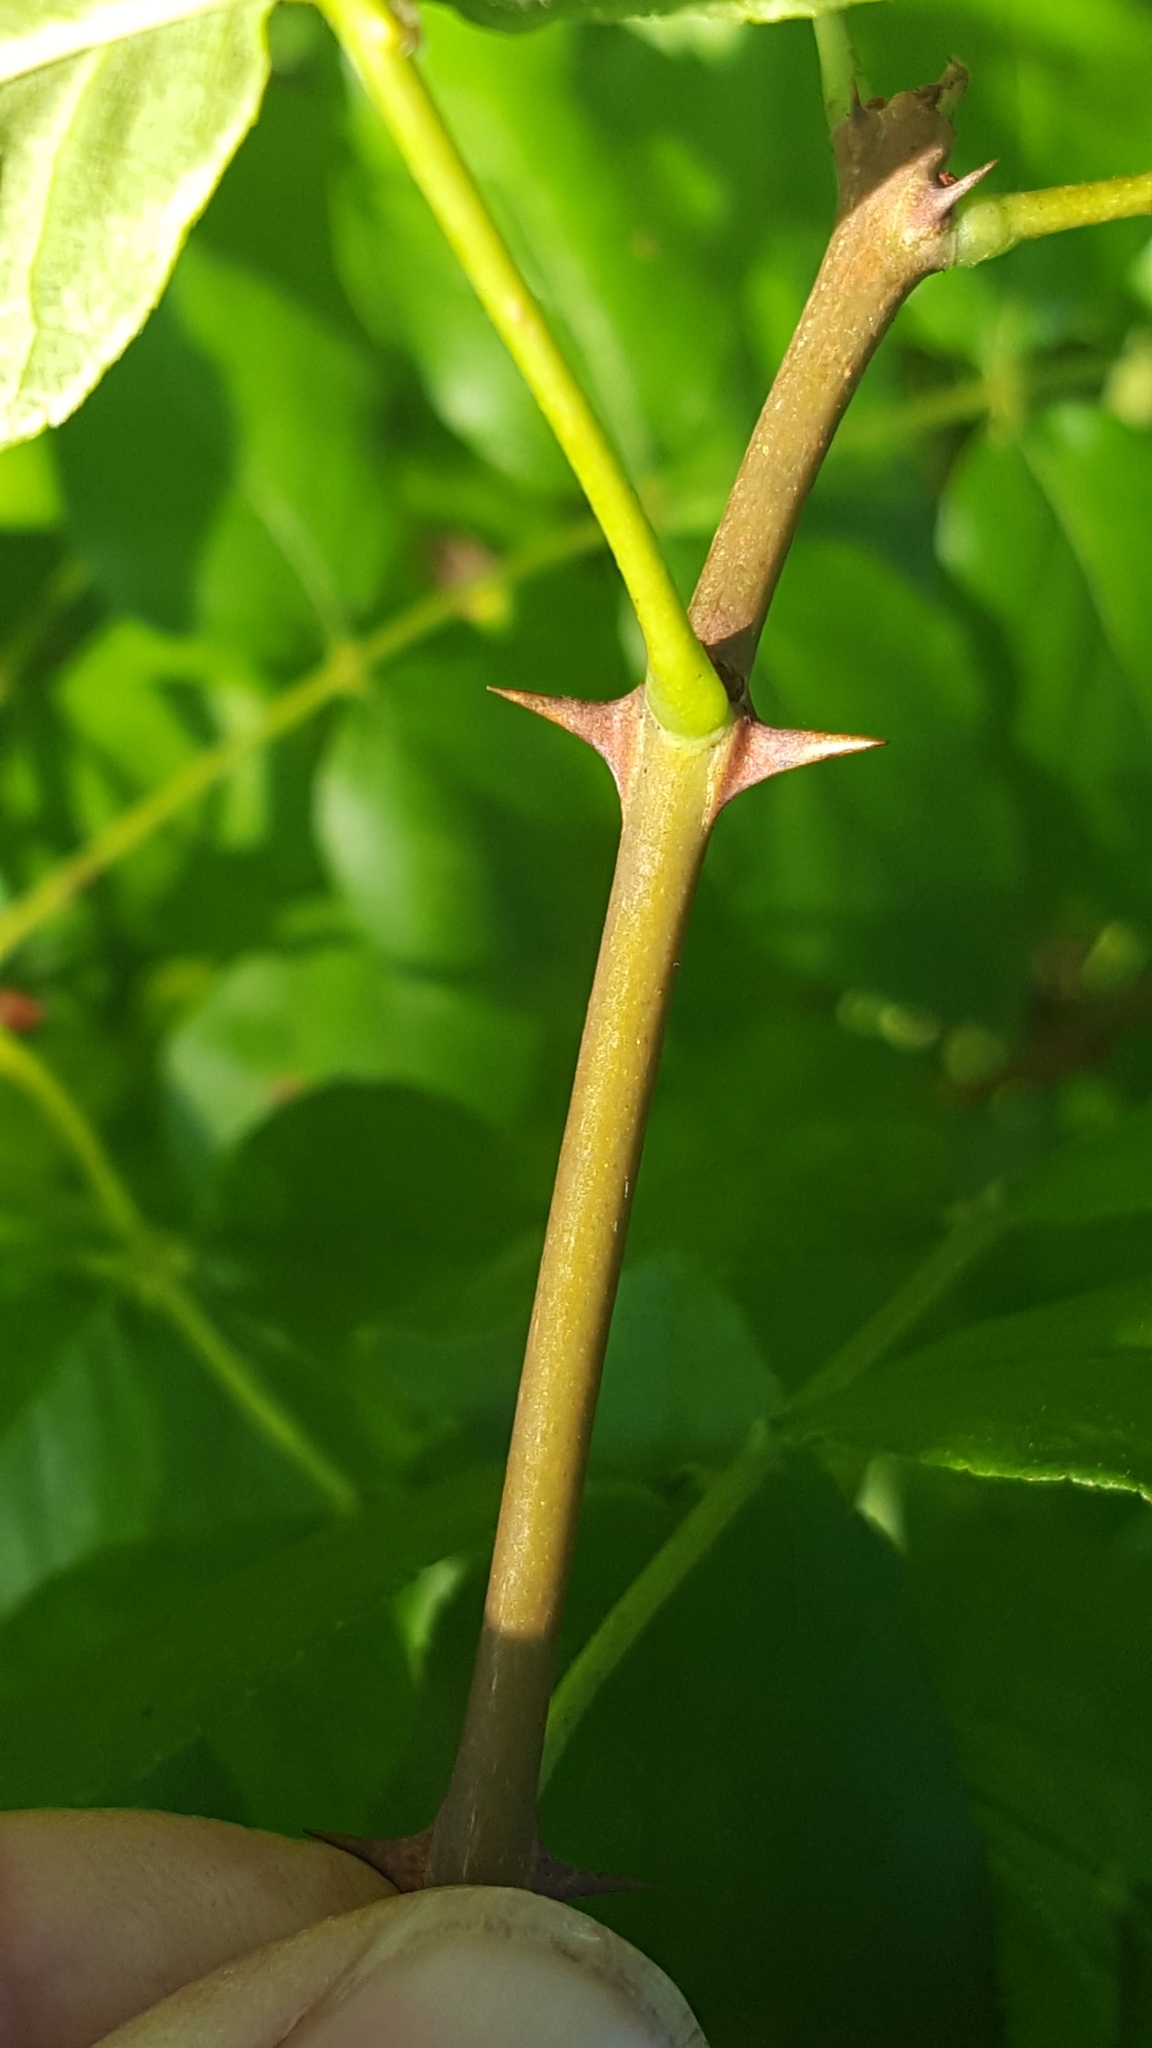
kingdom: Plantae
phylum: Tracheophyta
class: Magnoliopsida
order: Sapindales
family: Rutaceae
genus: Zanthoxylum
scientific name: Zanthoxylum americanum
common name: Northern prickly-ash
